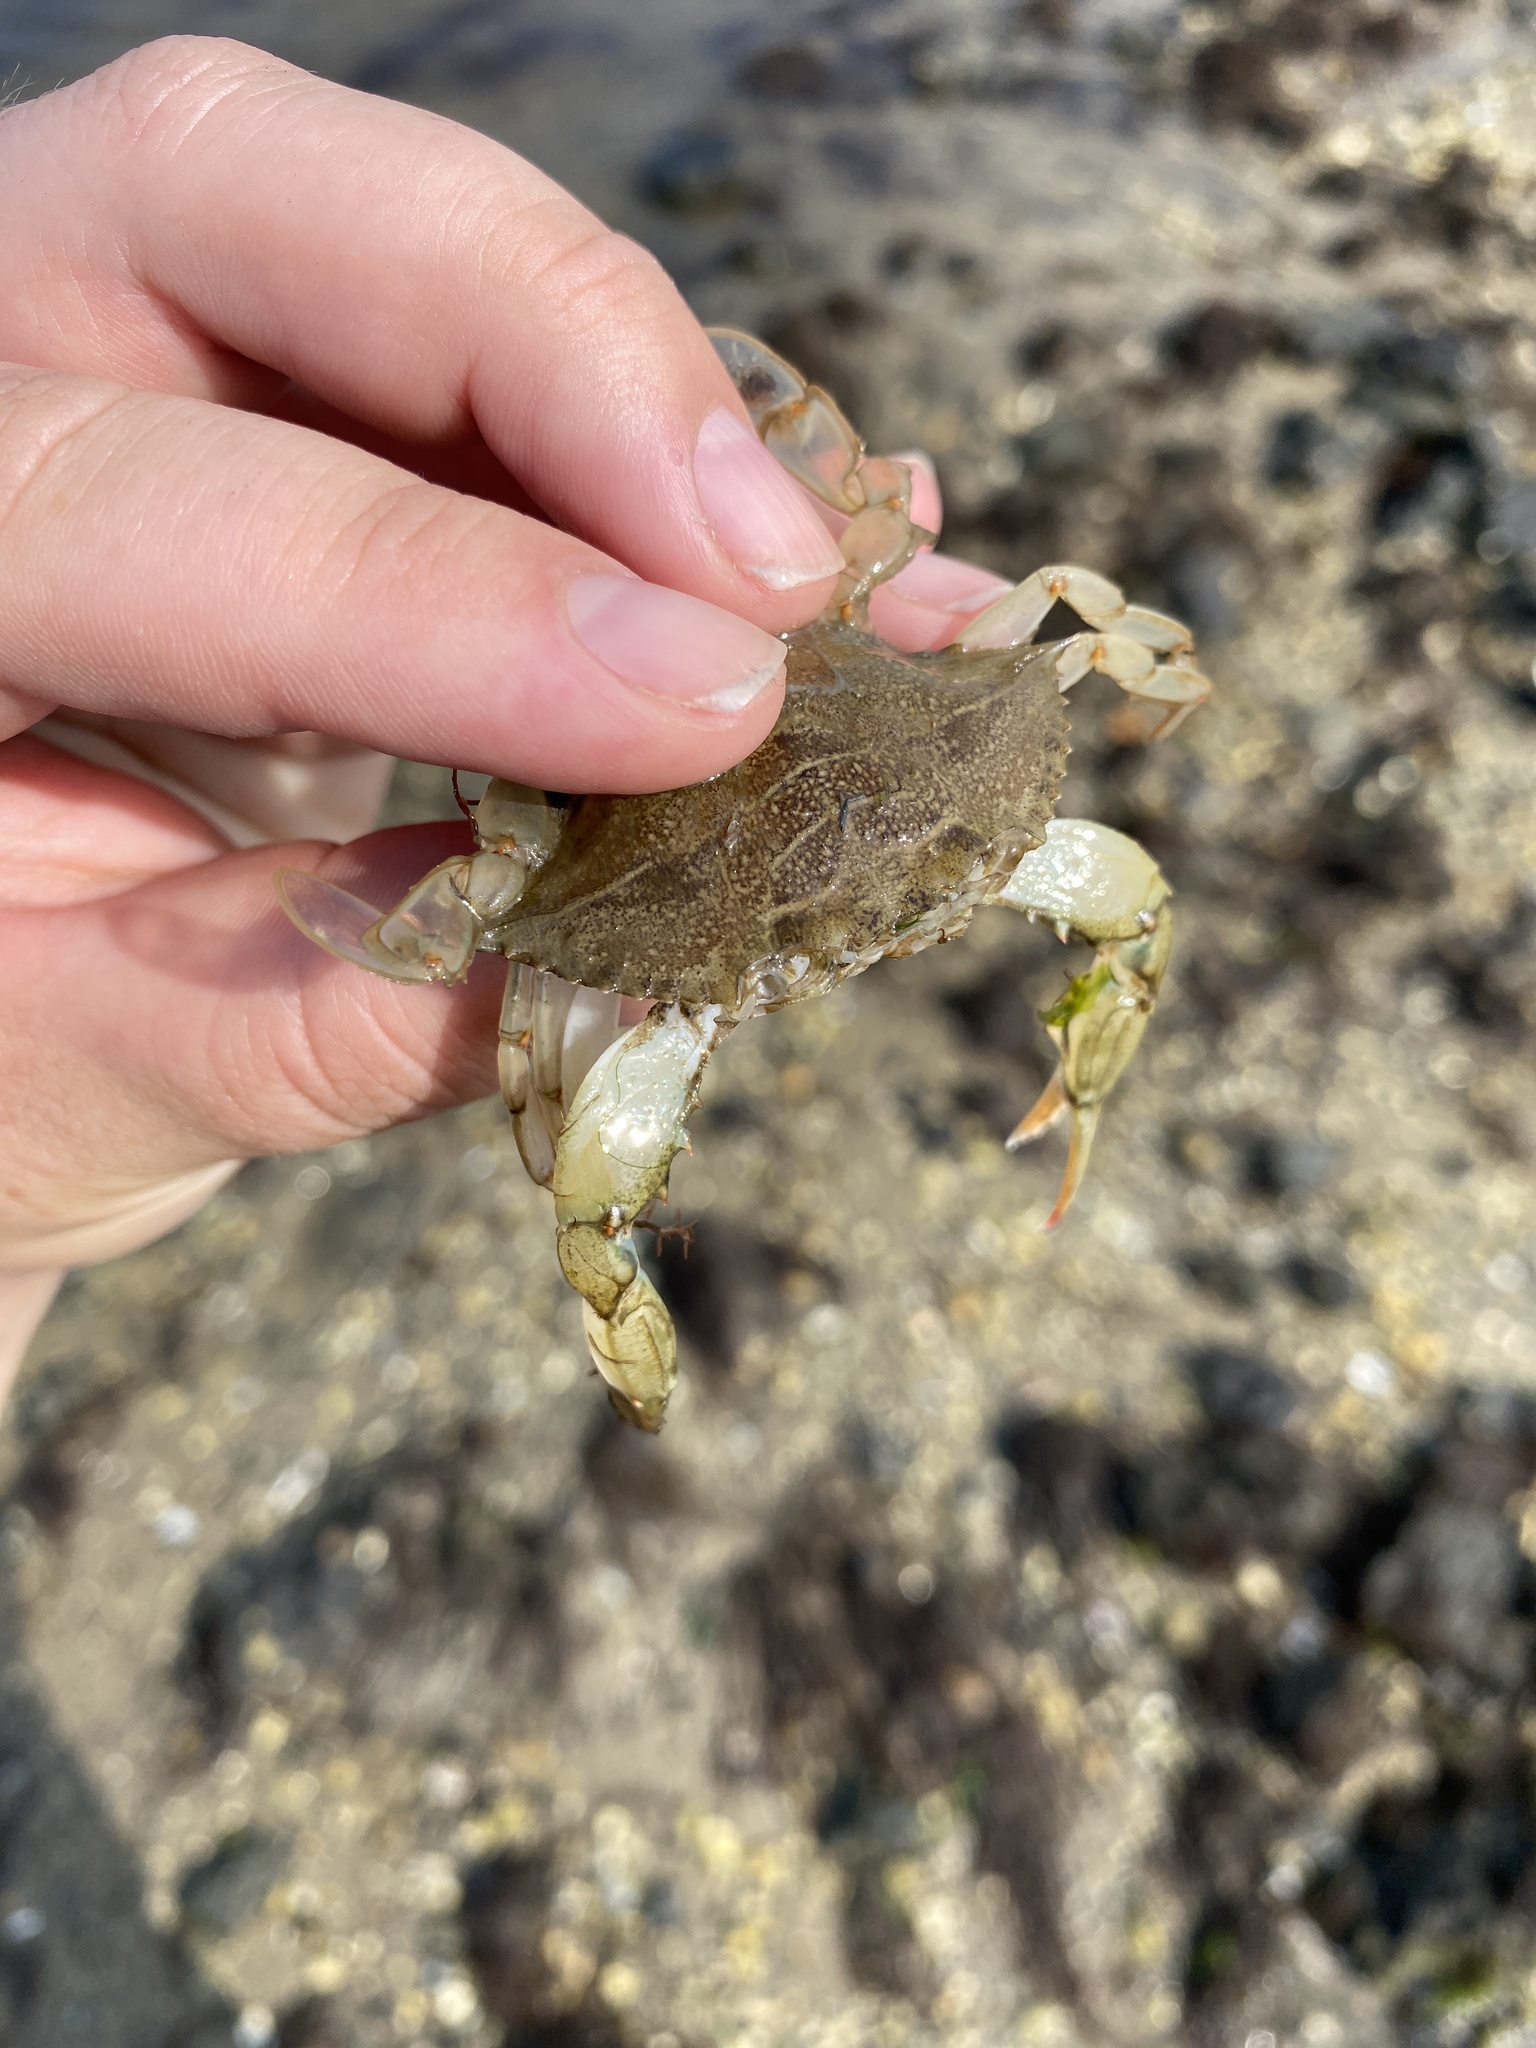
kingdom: Animalia
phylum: Arthropoda
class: Malacostraca
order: Decapoda
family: Portunidae
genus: Callinectes
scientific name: Callinectes sapidus
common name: Blue crab
